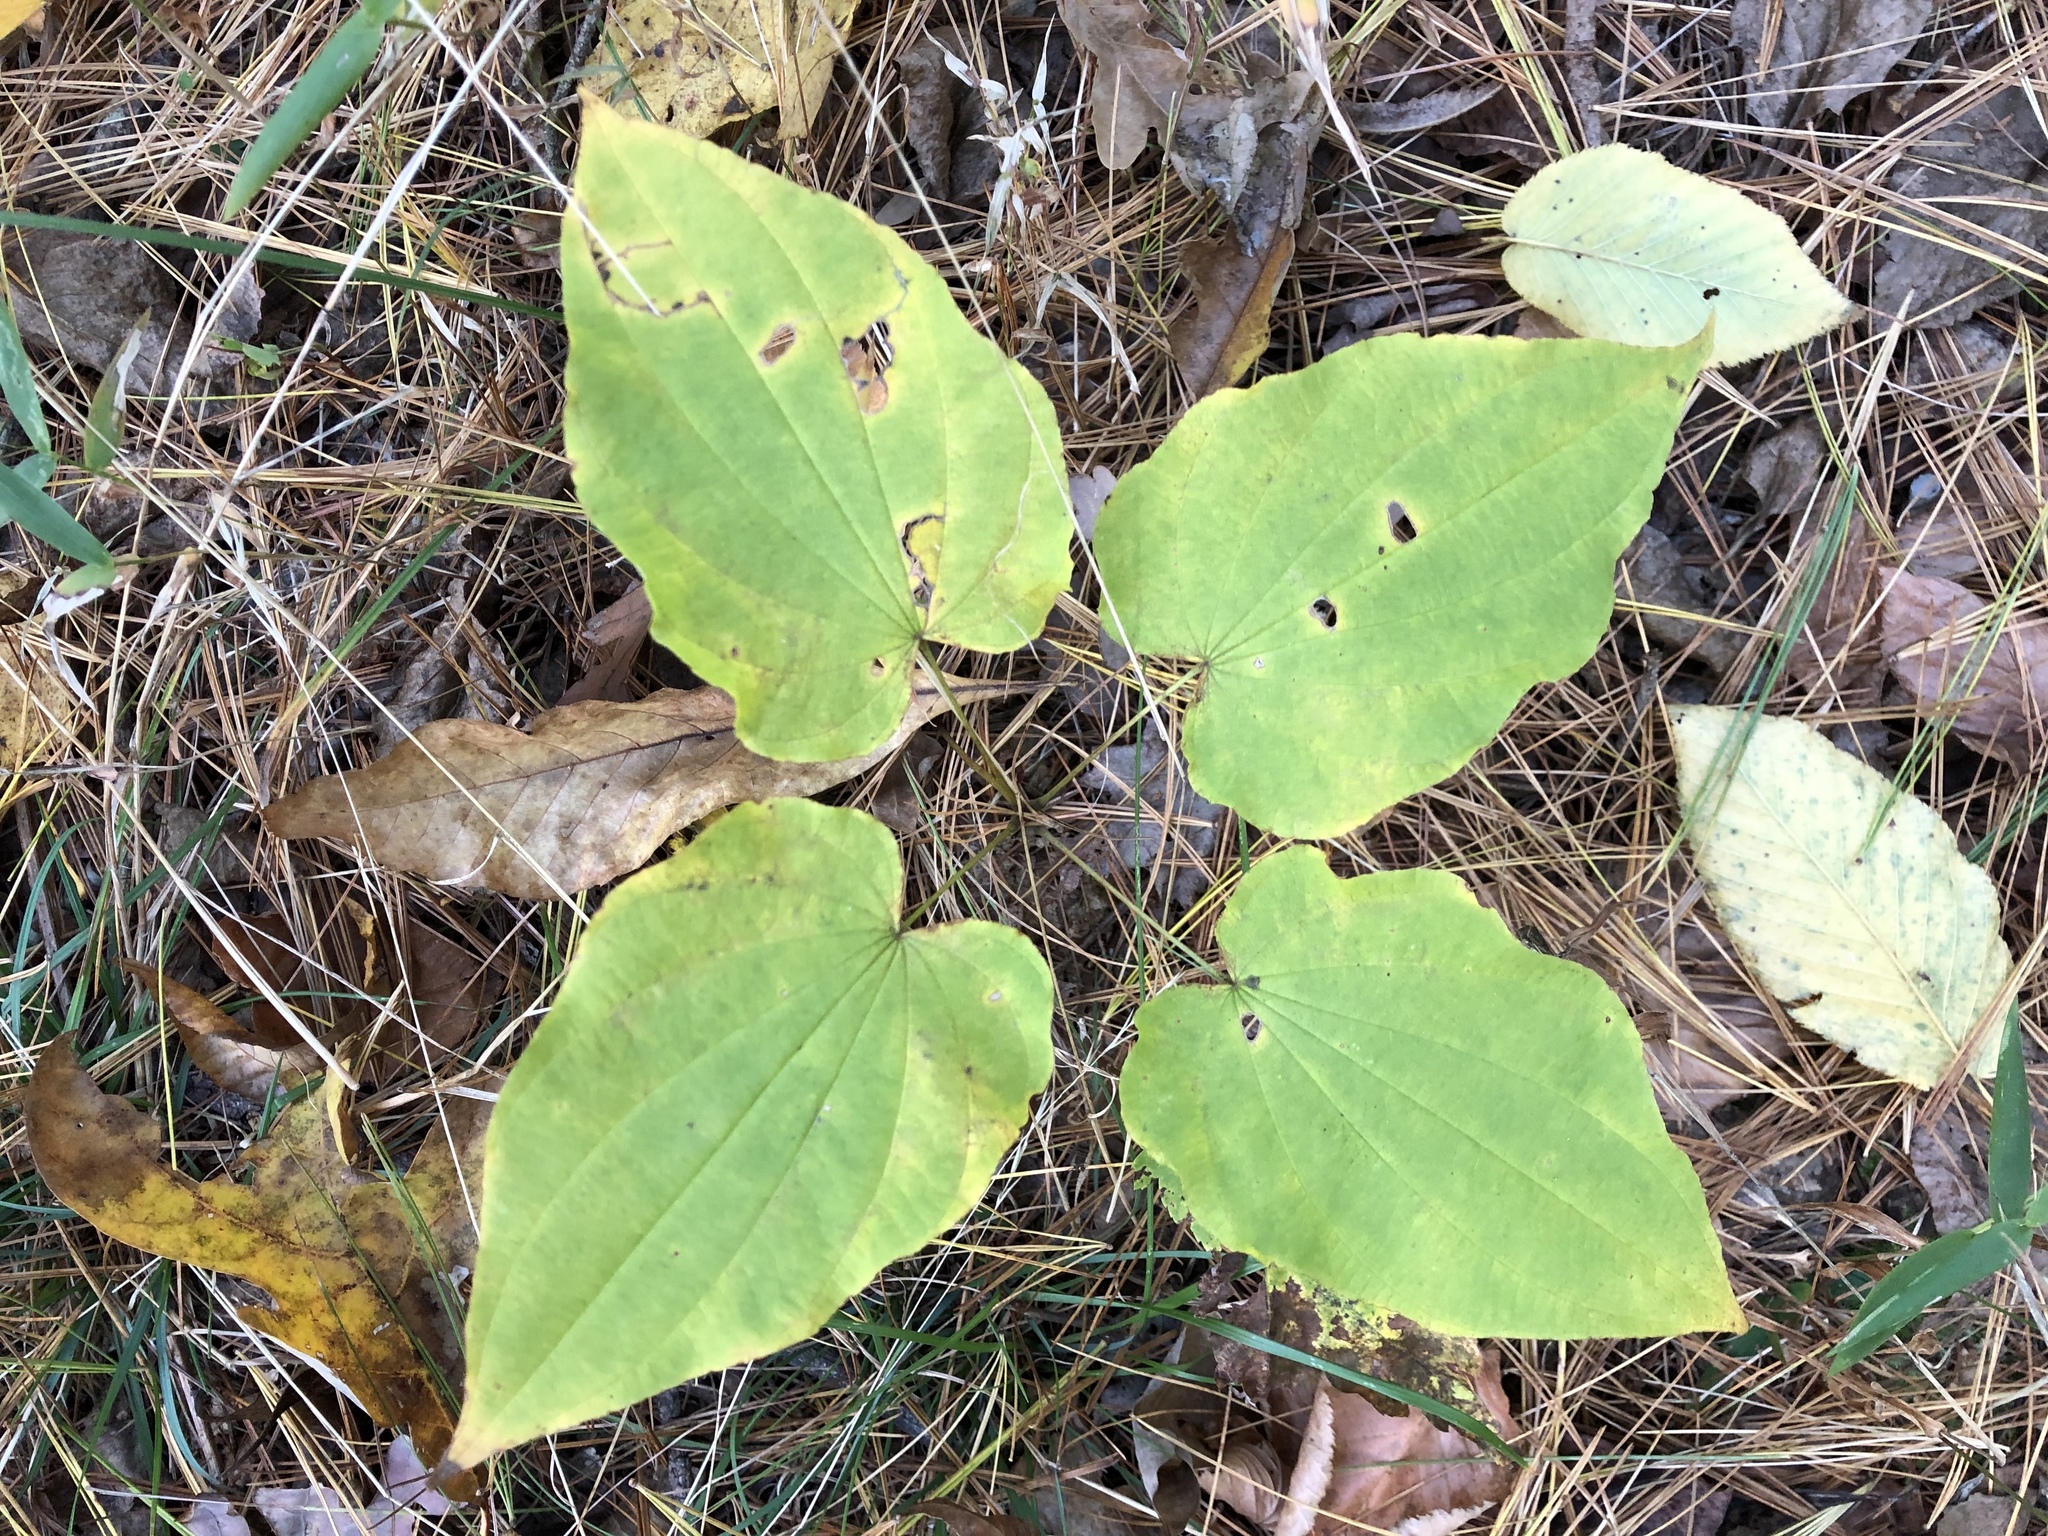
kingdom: Plantae
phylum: Tracheophyta
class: Liliopsida
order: Dioscoreales
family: Dioscoreaceae
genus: Dioscorea
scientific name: Dioscorea villosa
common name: Wild yam
